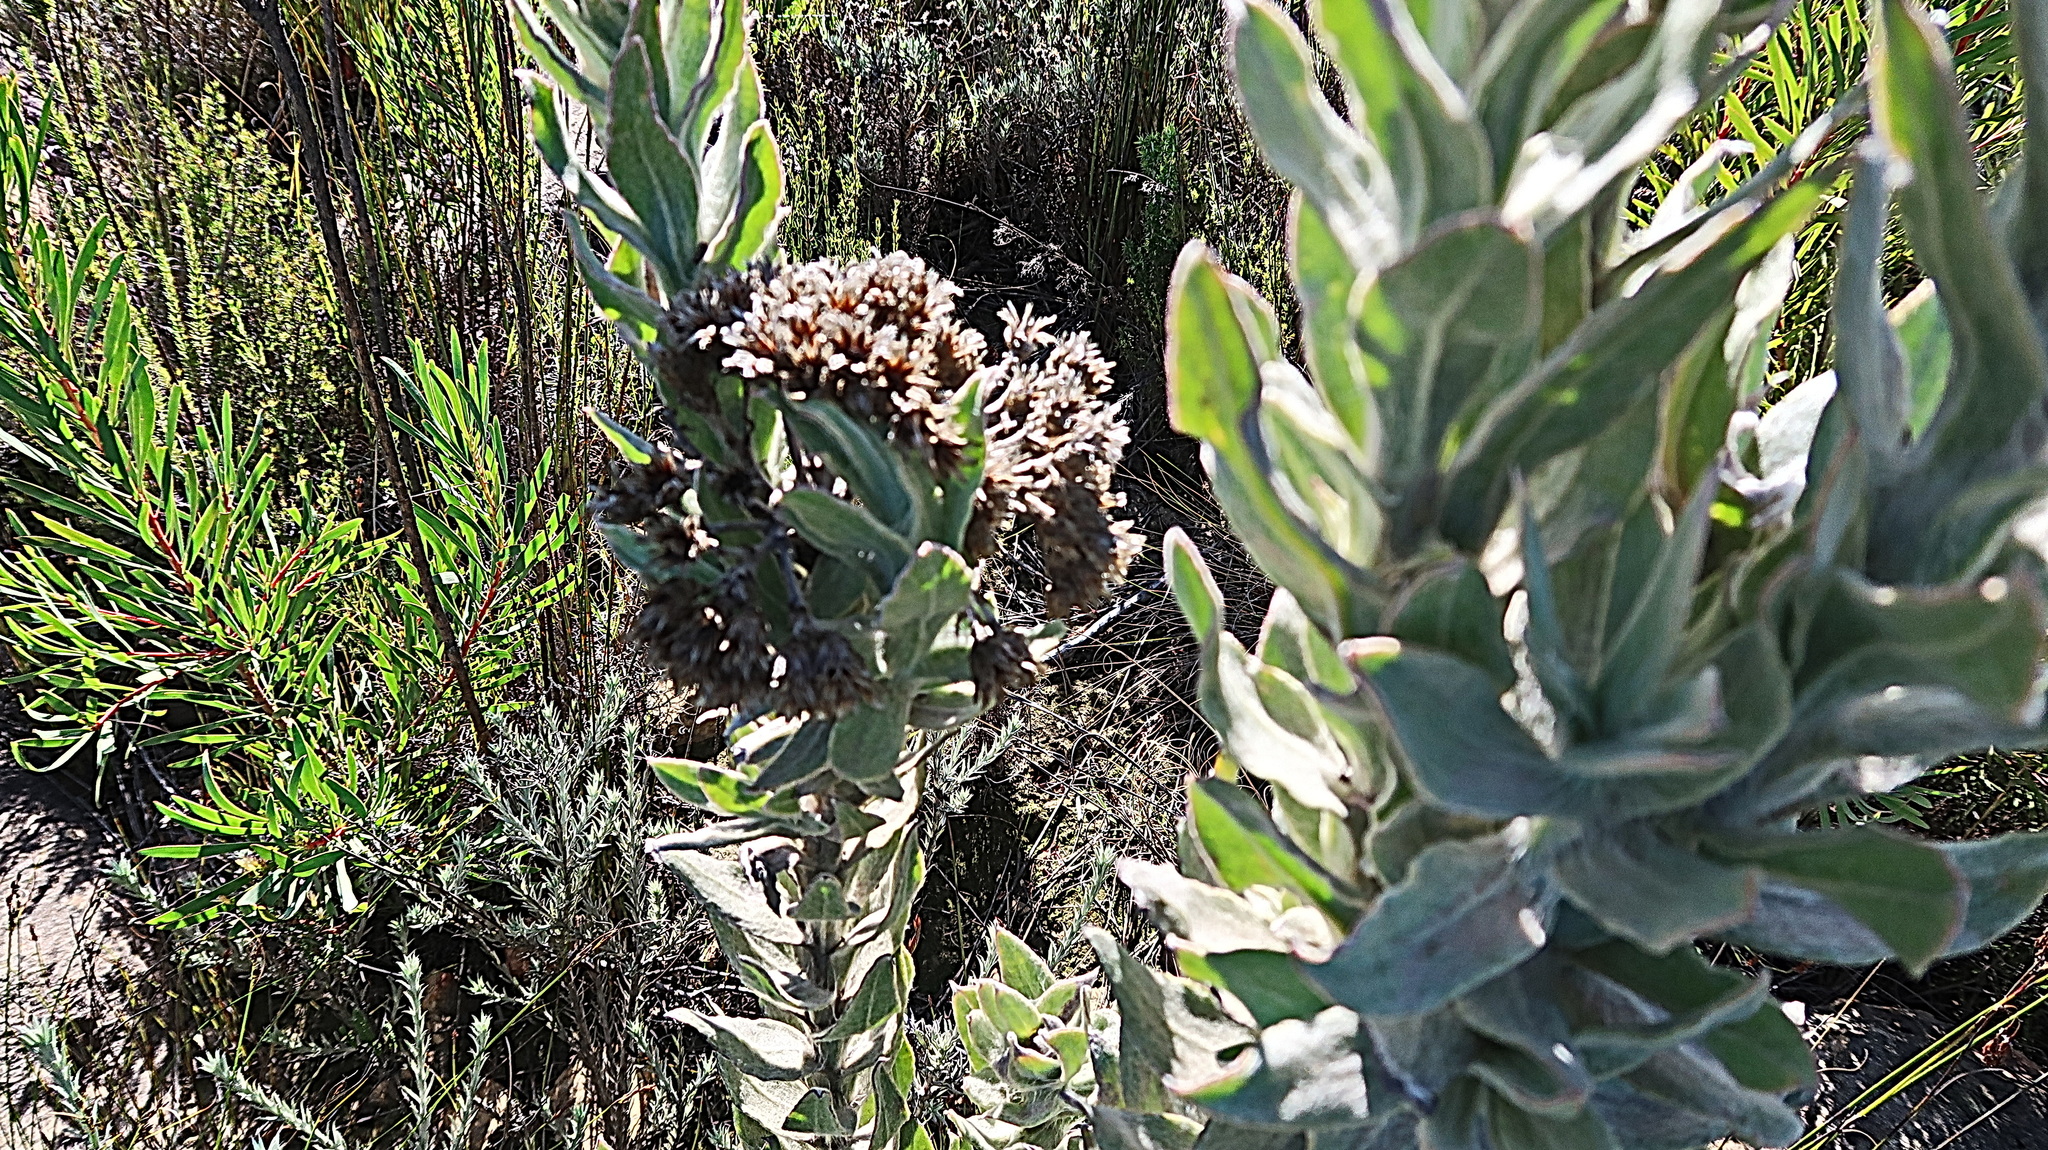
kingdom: Plantae
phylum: Tracheophyta
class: Magnoliopsida
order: Asterales
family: Asteraceae
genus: Syncarpha
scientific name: Syncarpha milleflora
